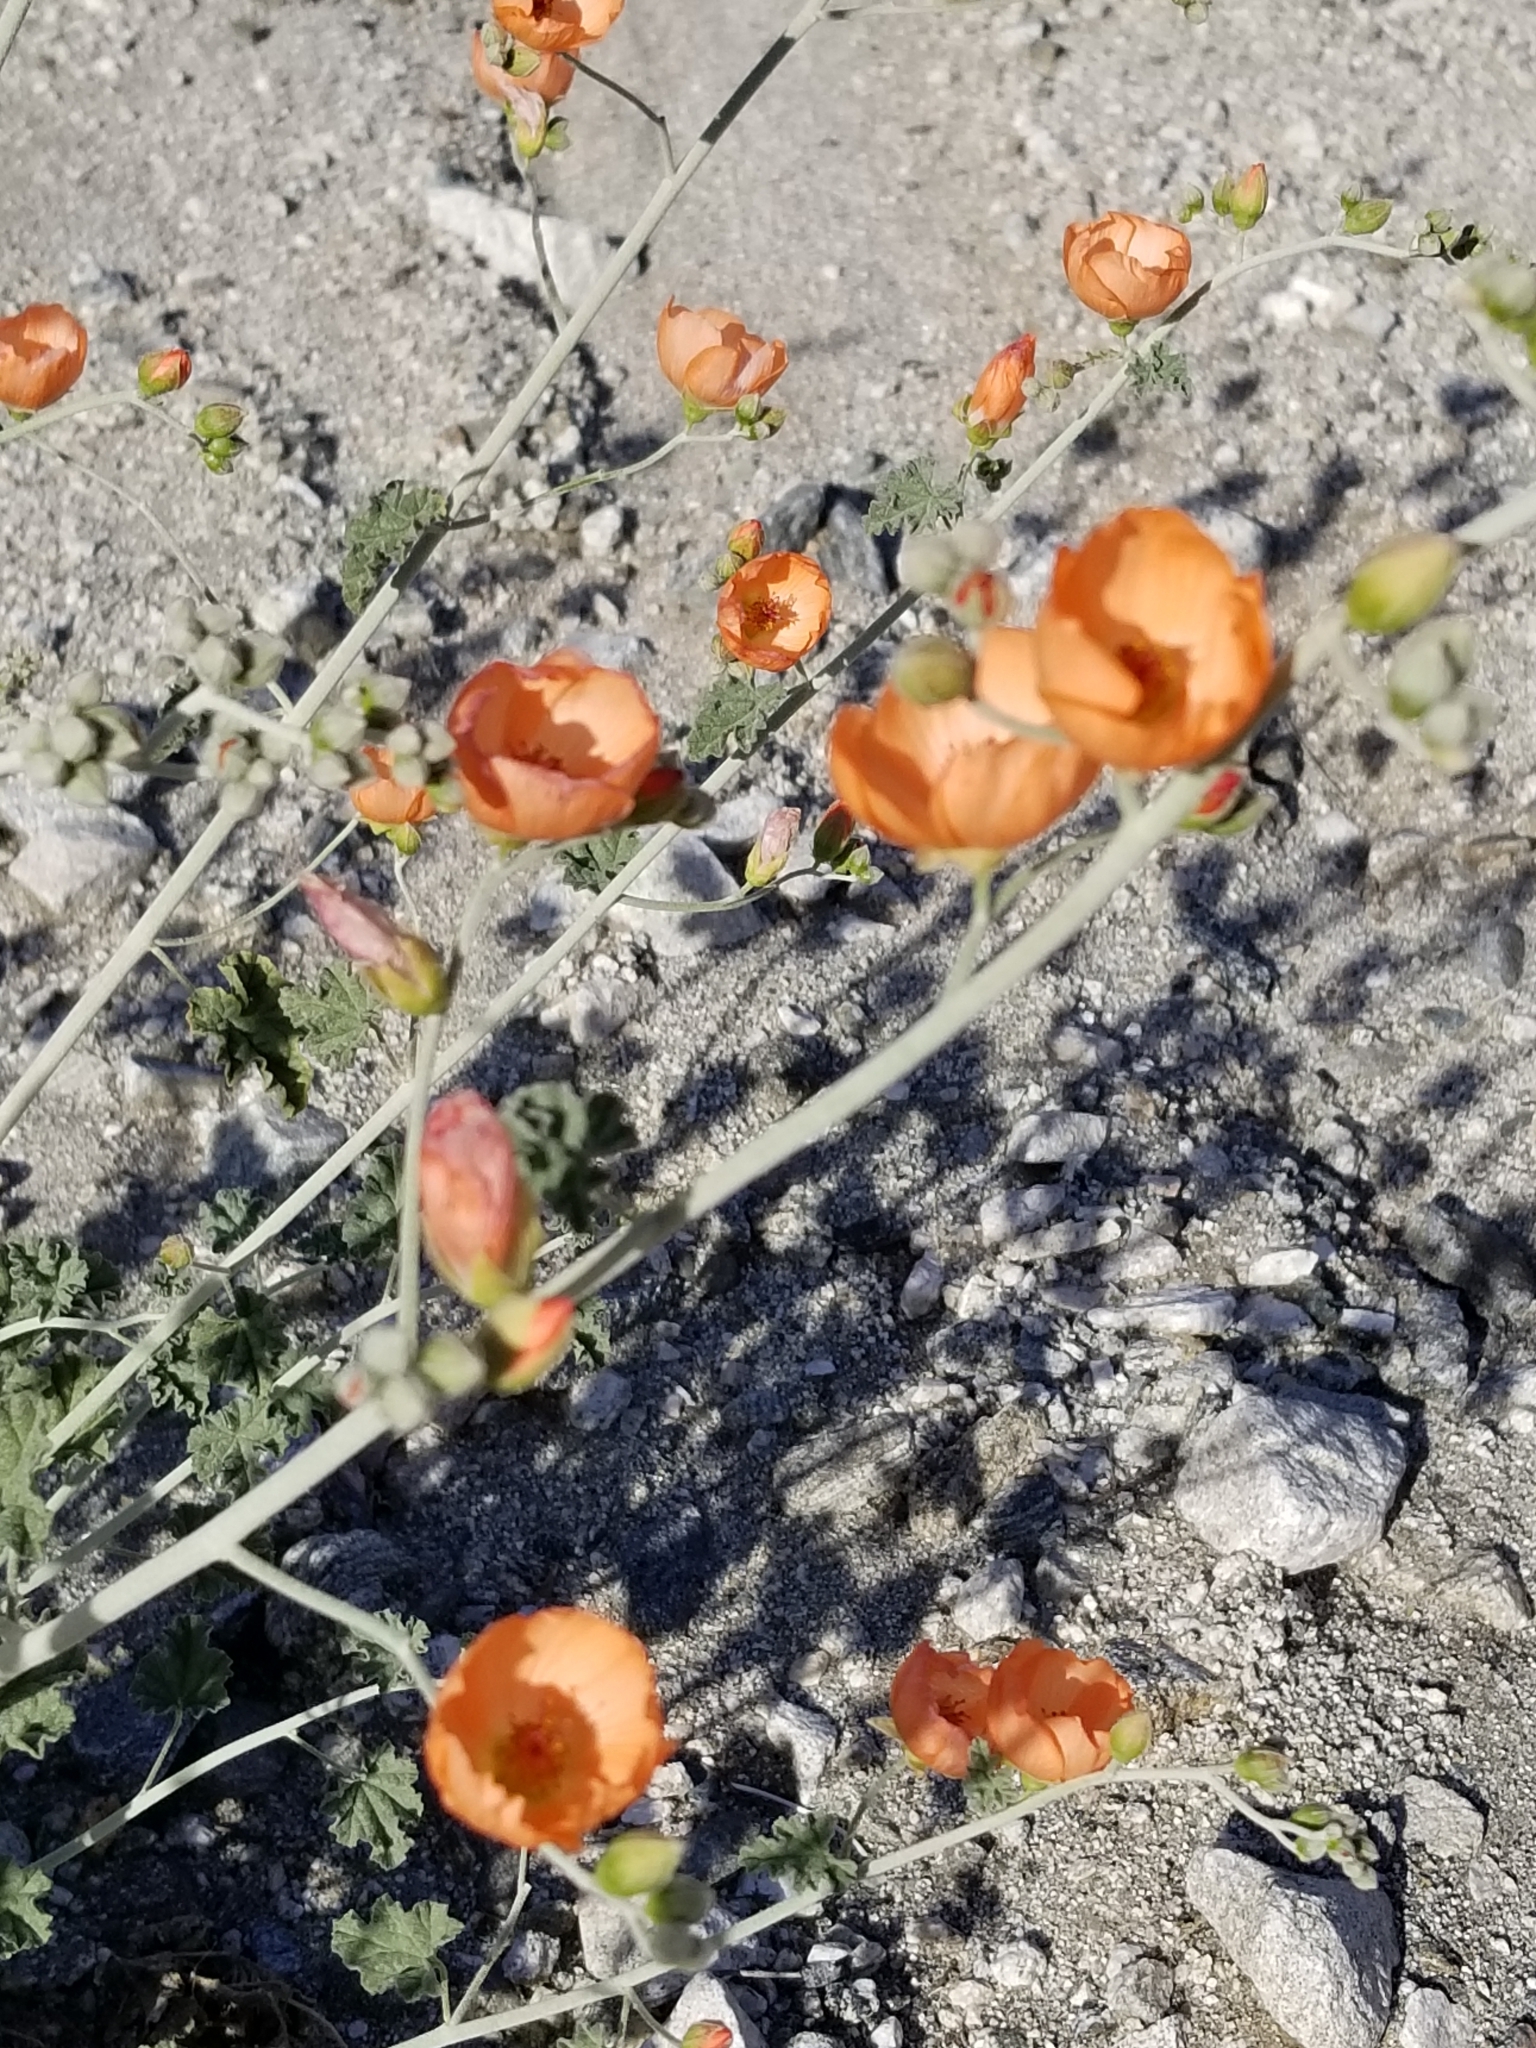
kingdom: Plantae
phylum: Tracheophyta
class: Magnoliopsida
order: Malvales
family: Malvaceae
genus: Sphaeralcea
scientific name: Sphaeralcea ambigua
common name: Apricot globe-mallow
